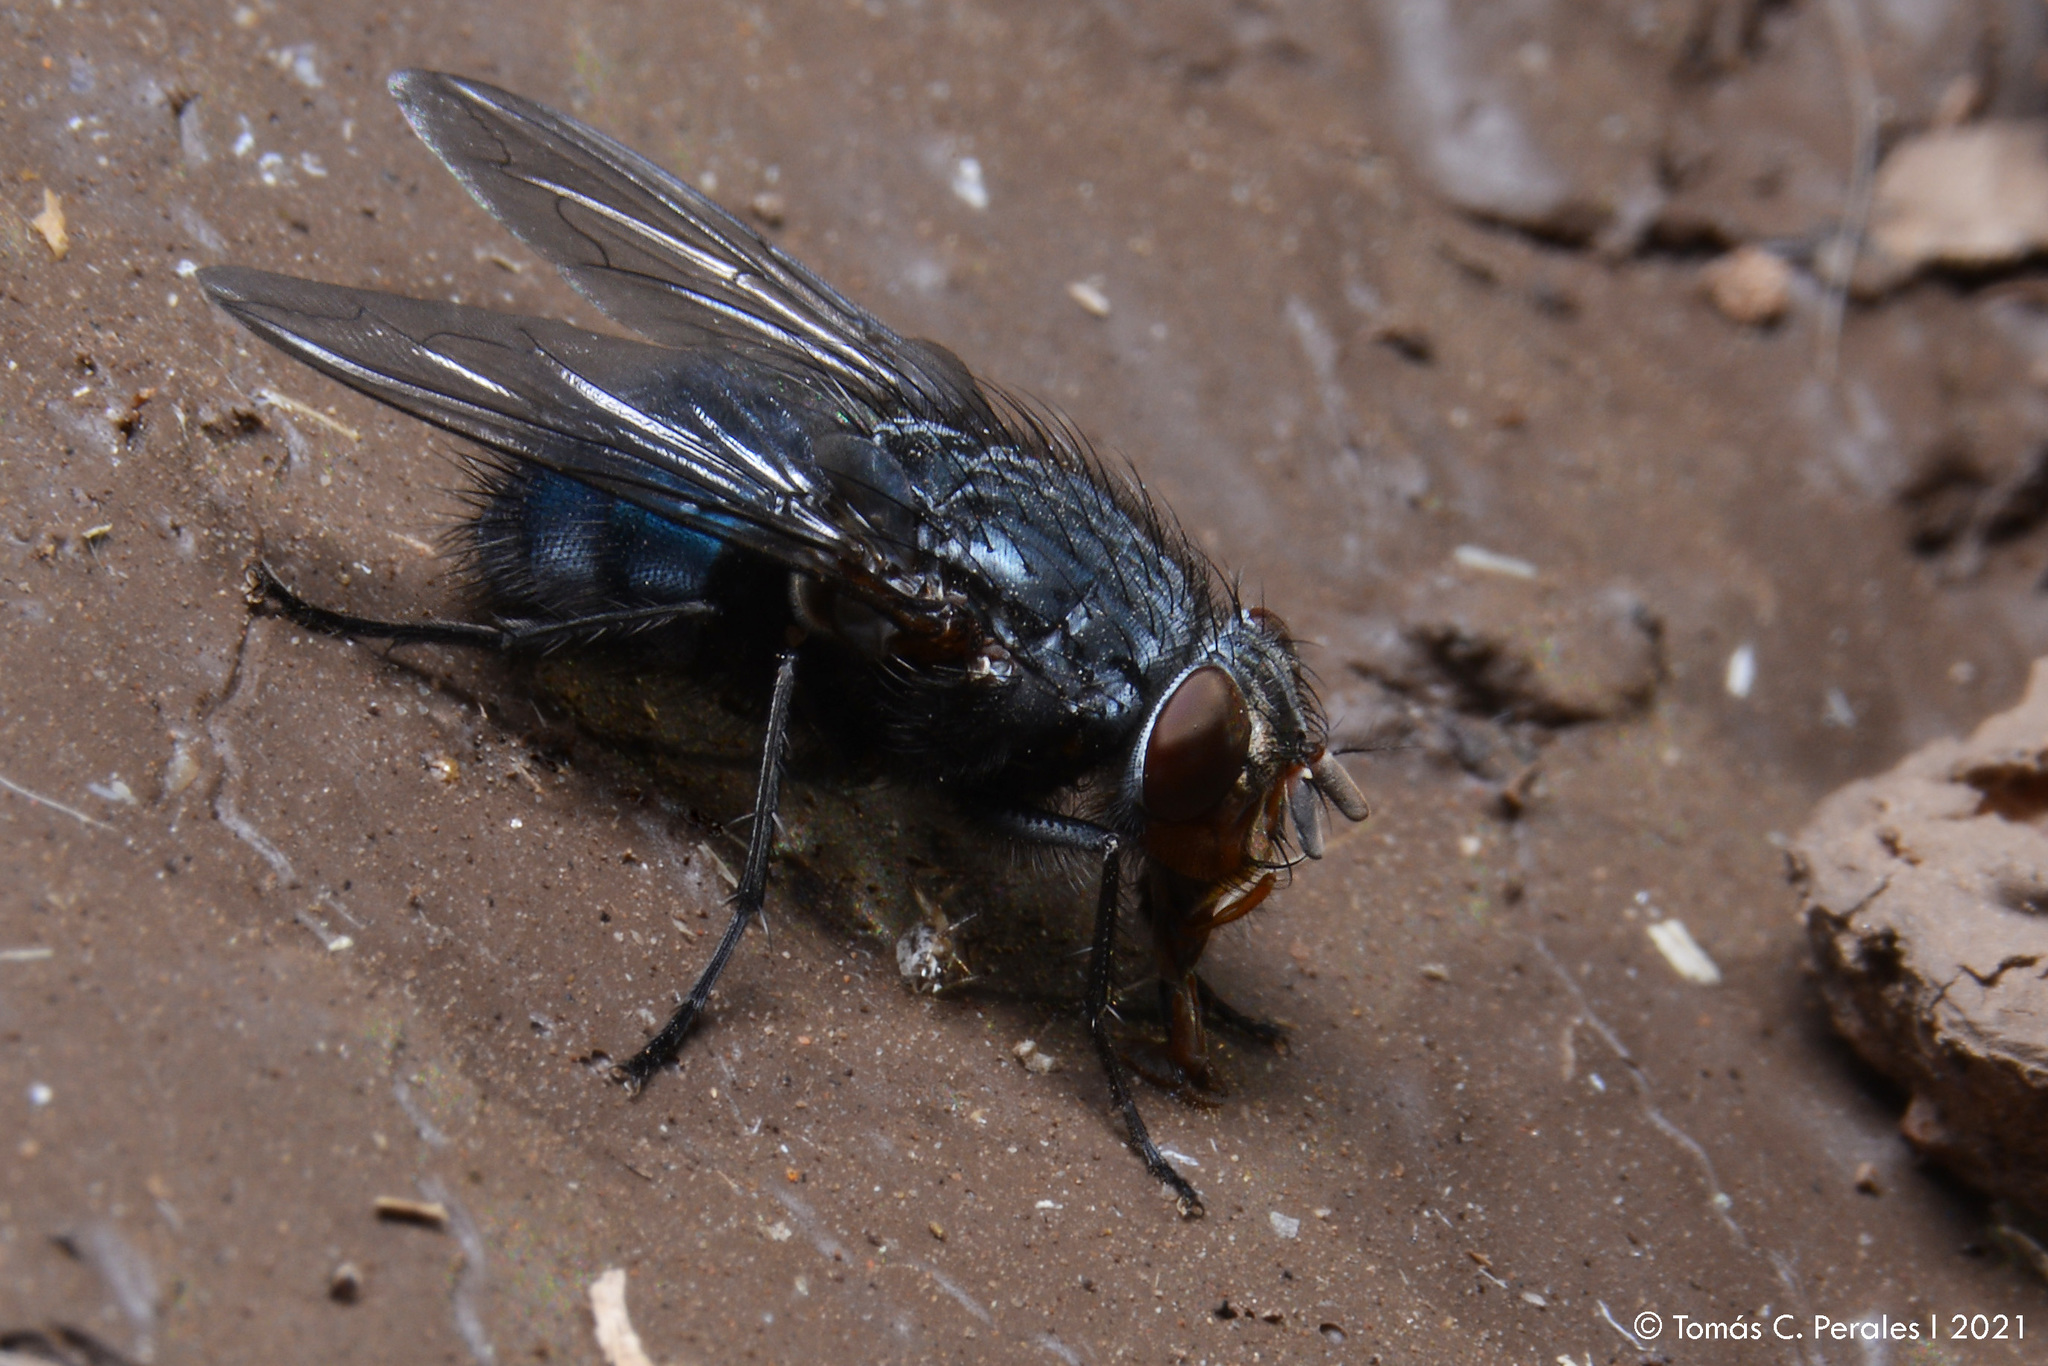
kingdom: Animalia
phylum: Arthropoda
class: Insecta
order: Diptera
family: Calliphoridae
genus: Calliphora
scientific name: Calliphora vicina
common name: Common blow flie
